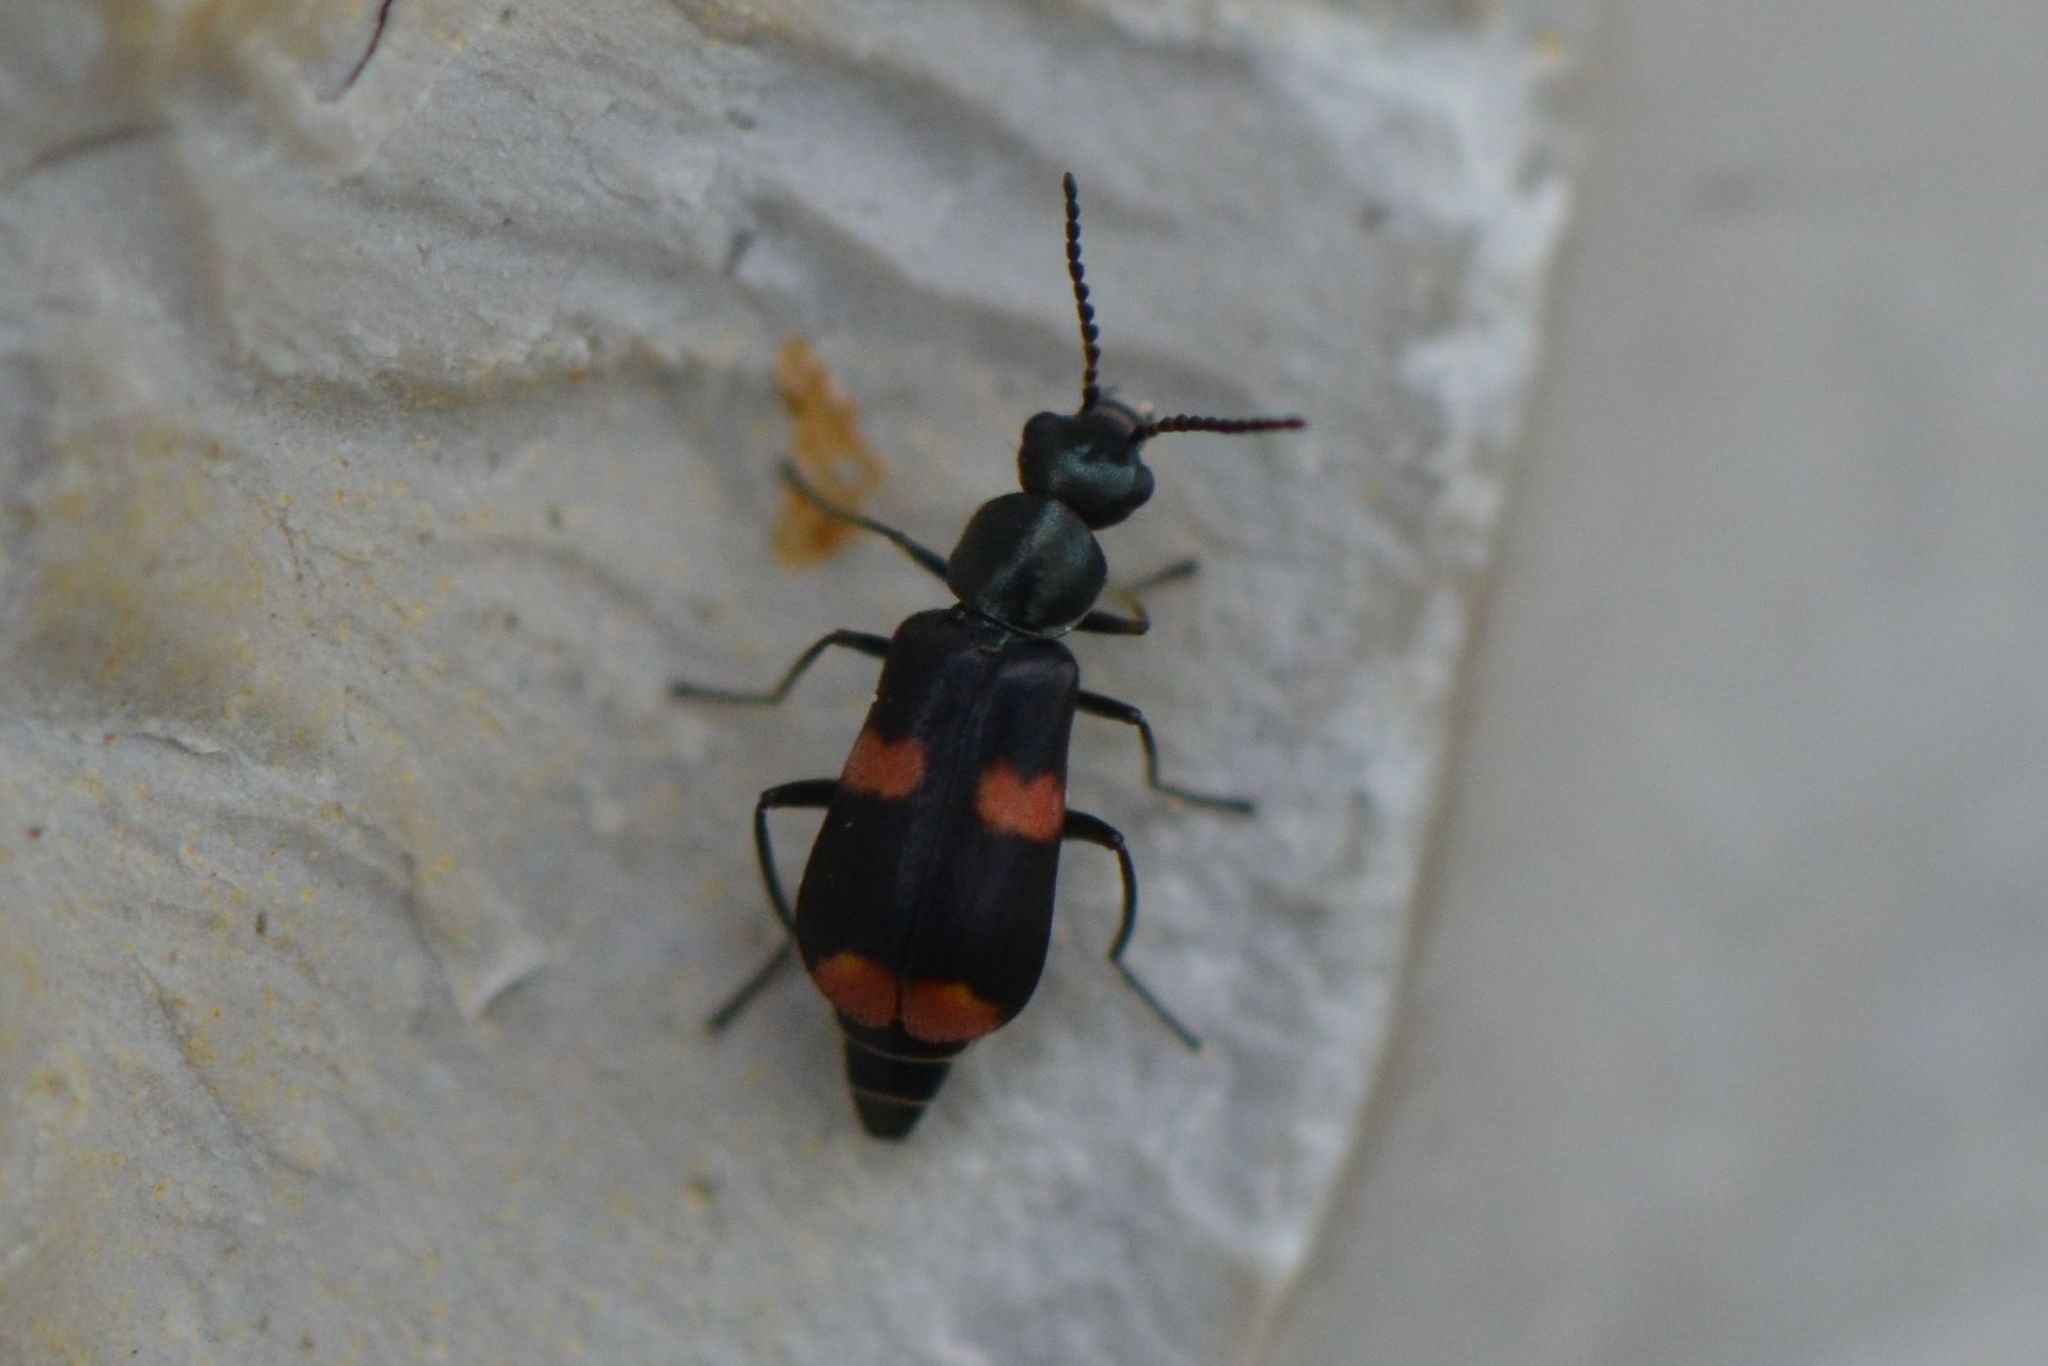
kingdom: Animalia
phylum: Arthropoda
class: Insecta
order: Coleoptera
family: Melyridae
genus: Anthocomus
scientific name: Anthocomus fasciatus
